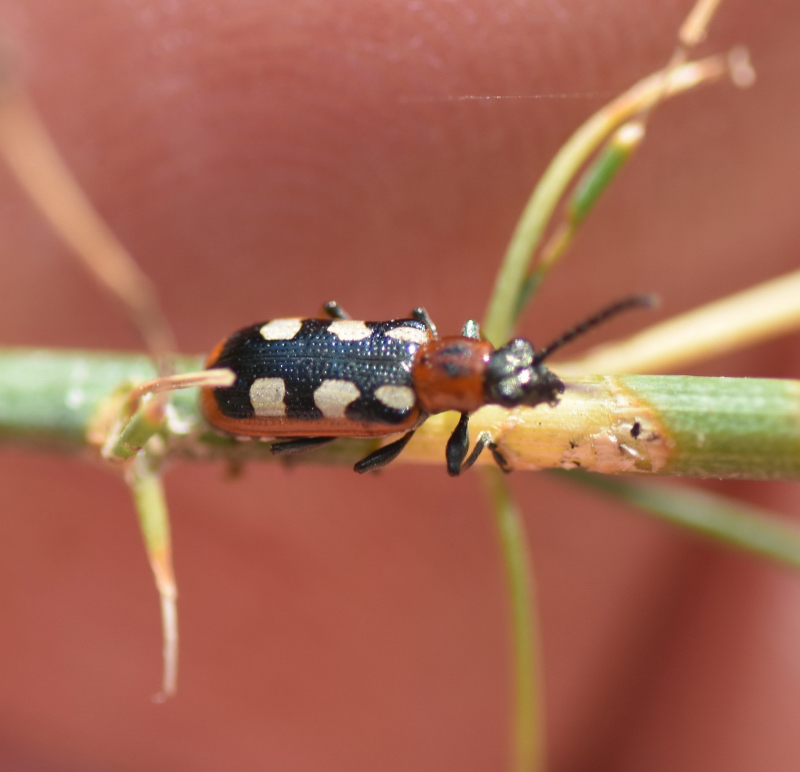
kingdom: Animalia
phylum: Arthropoda
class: Insecta
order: Coleoptera
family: Chrysomelidae
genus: Crioceris
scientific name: Crioceris asparagi
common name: Asparagus beetle
